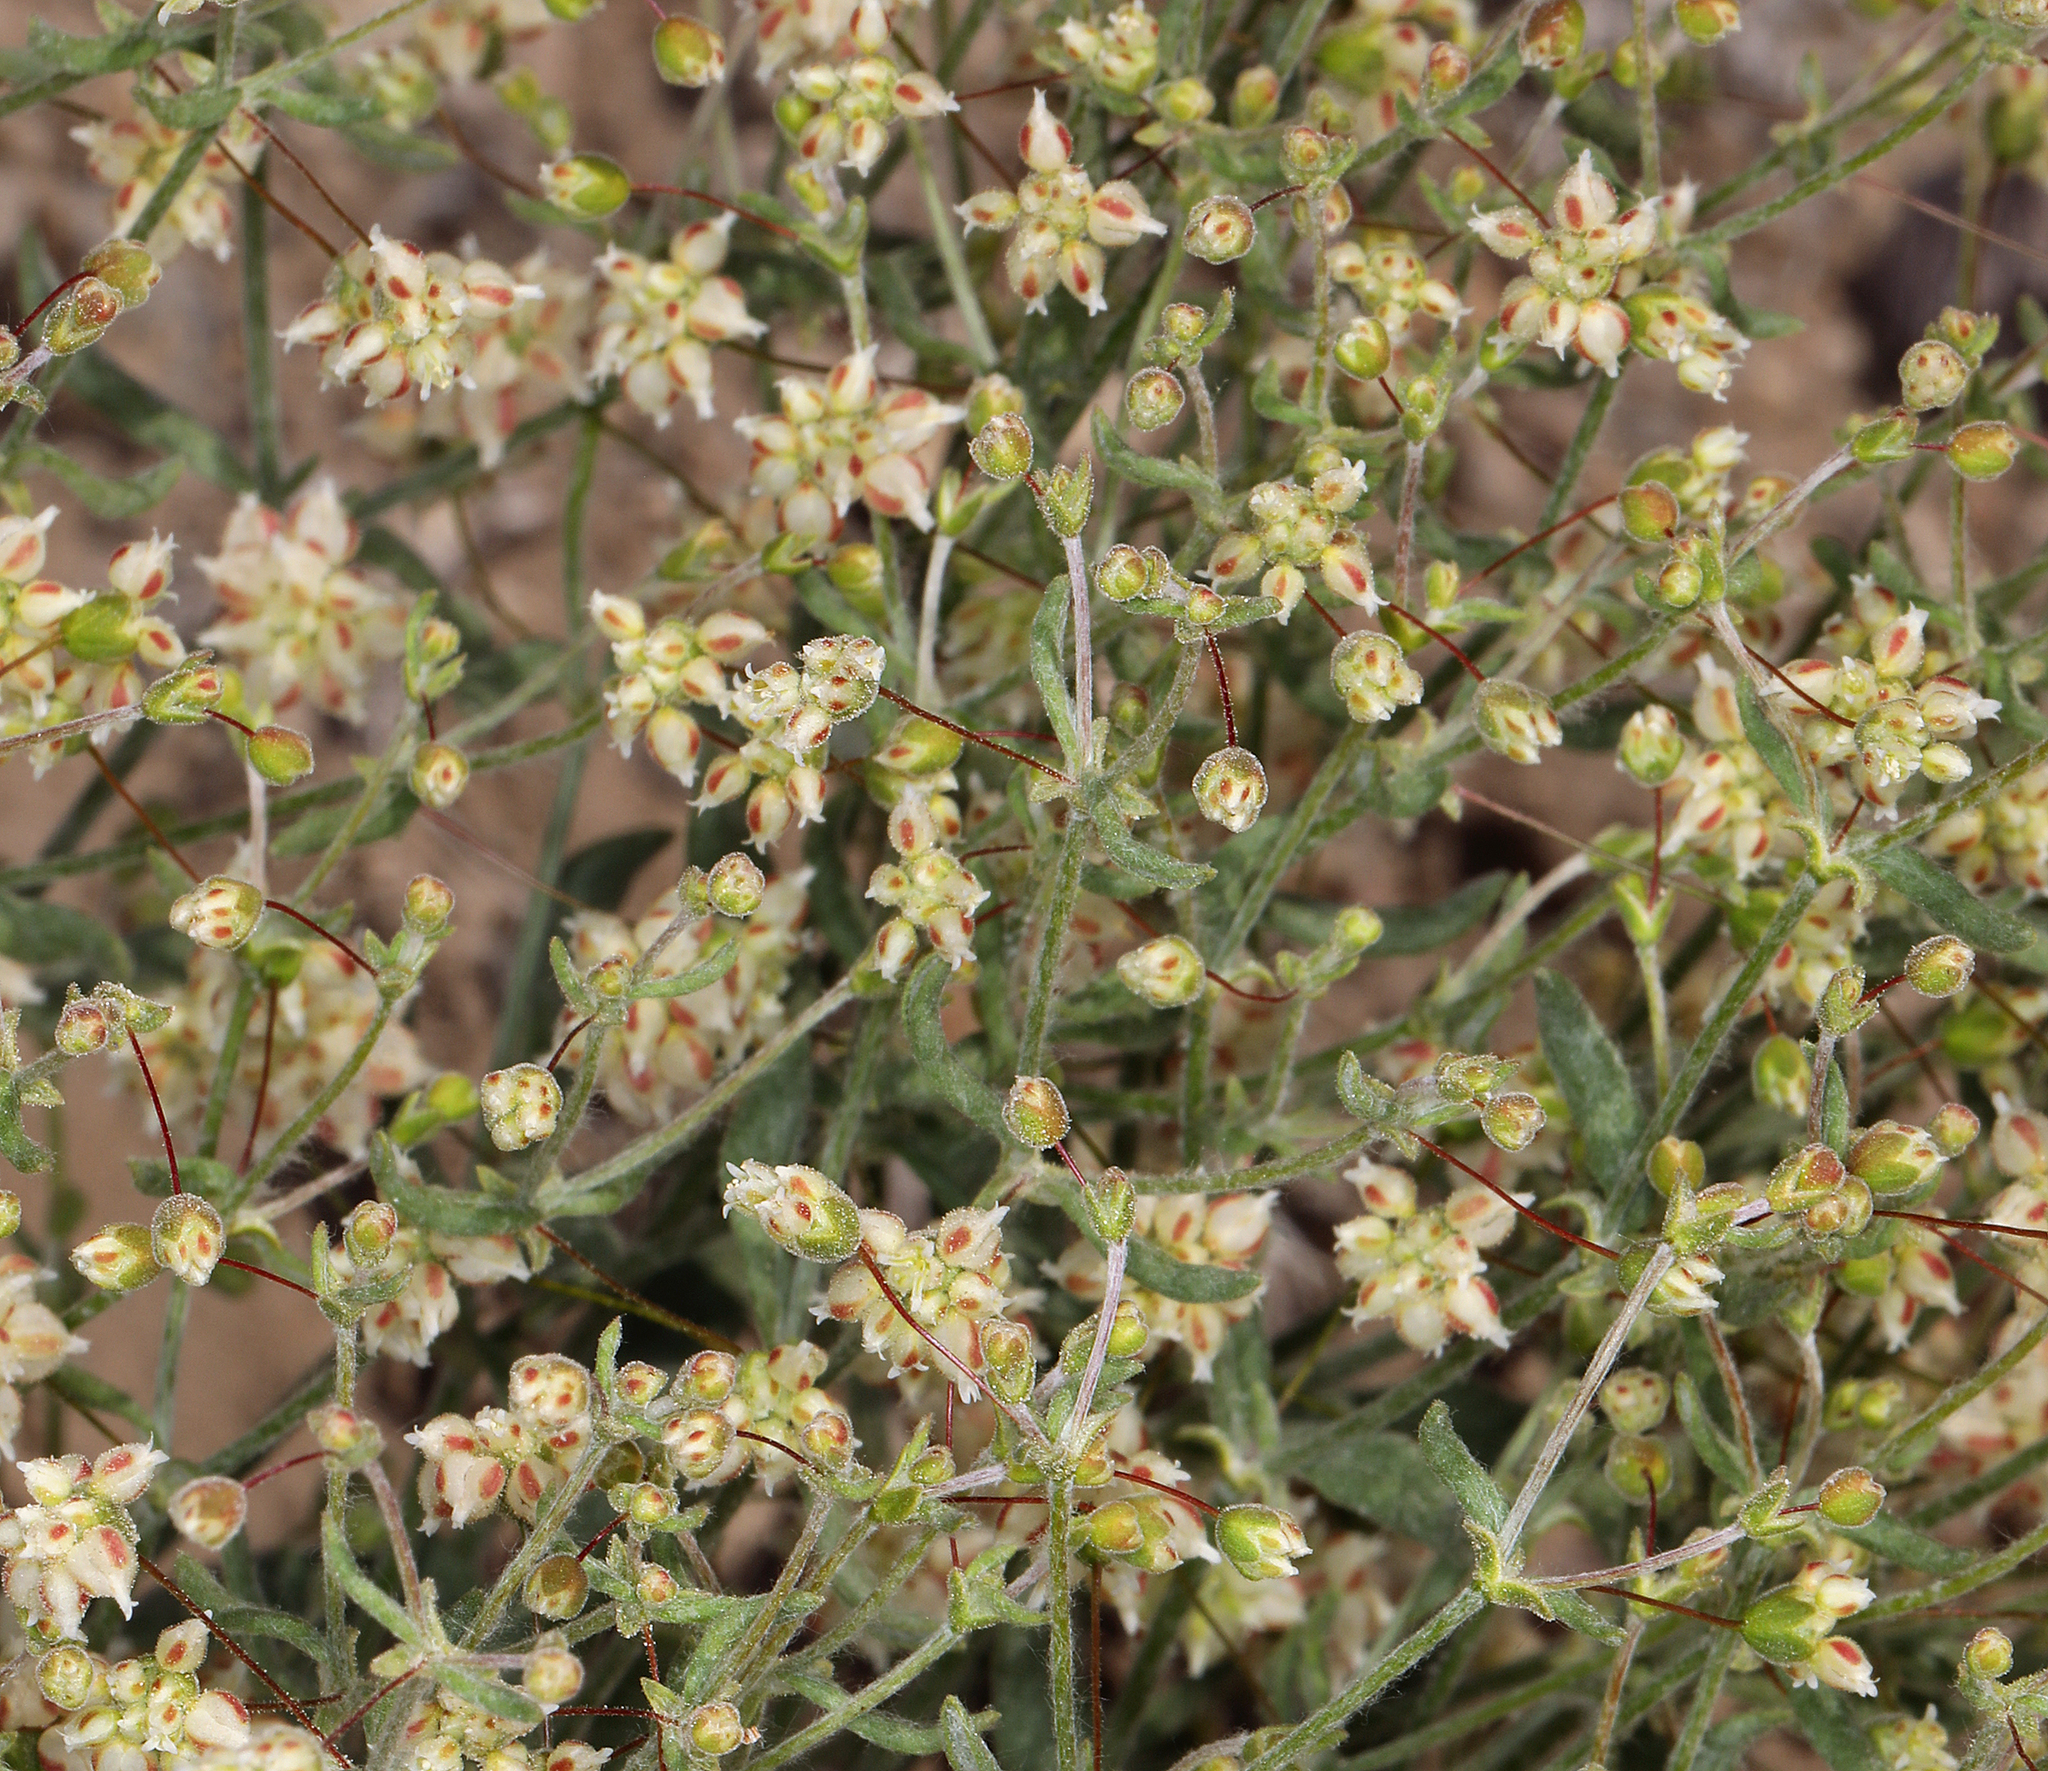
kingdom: Plantae
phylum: Tracheophyta
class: Magnoliopsida
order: Caryophyllales
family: Polygonaceae
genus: Eriogonum
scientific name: Eriogonum maculatum
